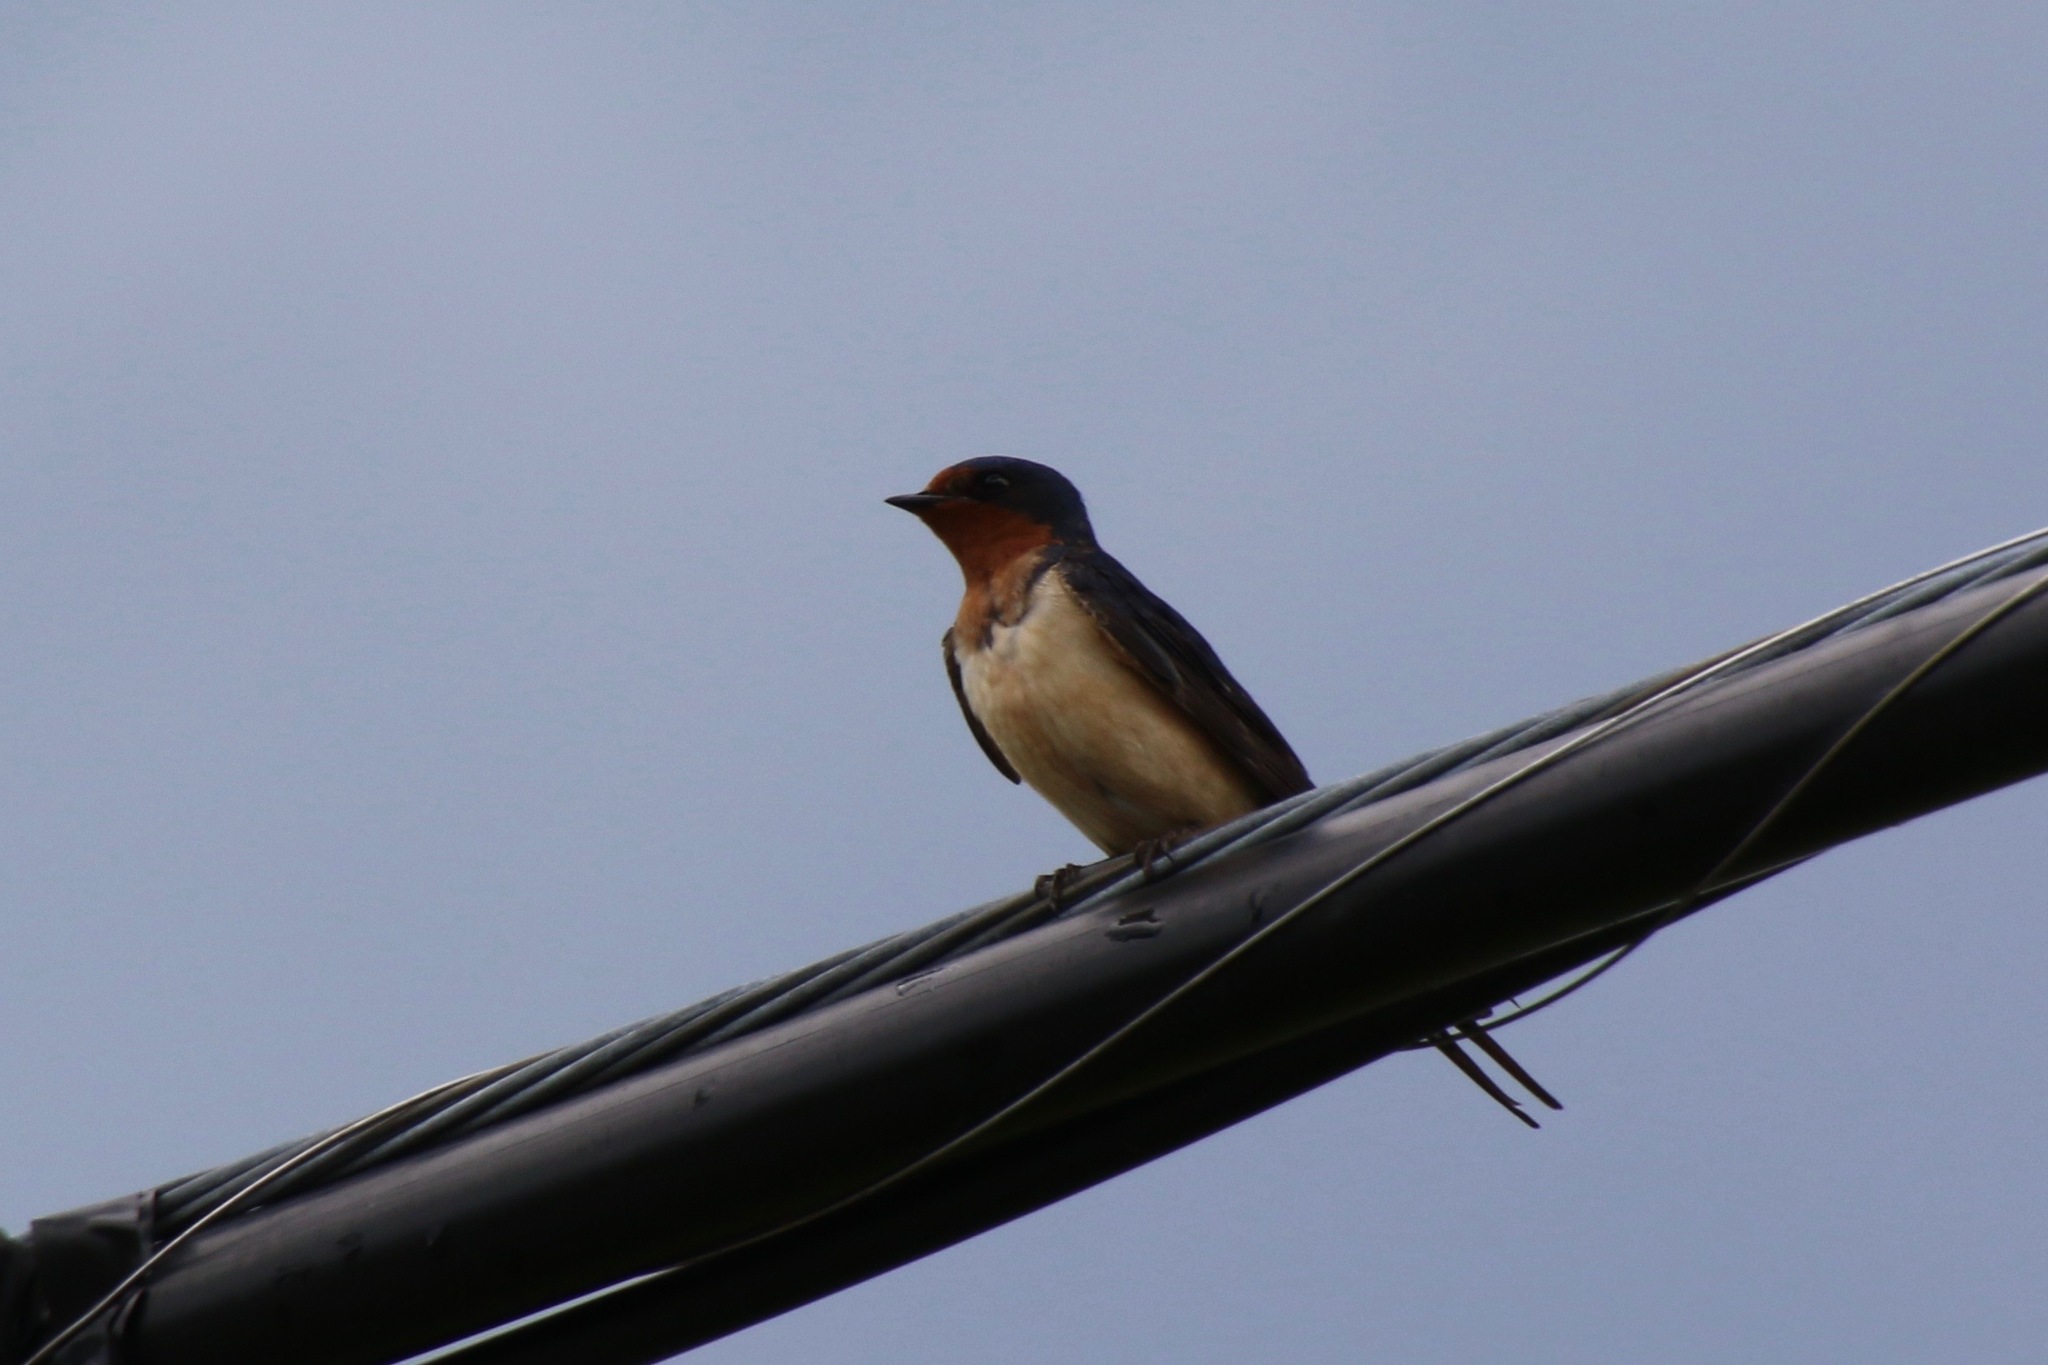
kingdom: Animalia
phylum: Chordata
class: Aves
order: Passeriformes
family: Hirundinidae
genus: Hirundo
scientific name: Hirundo rustica
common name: Barn swallow
